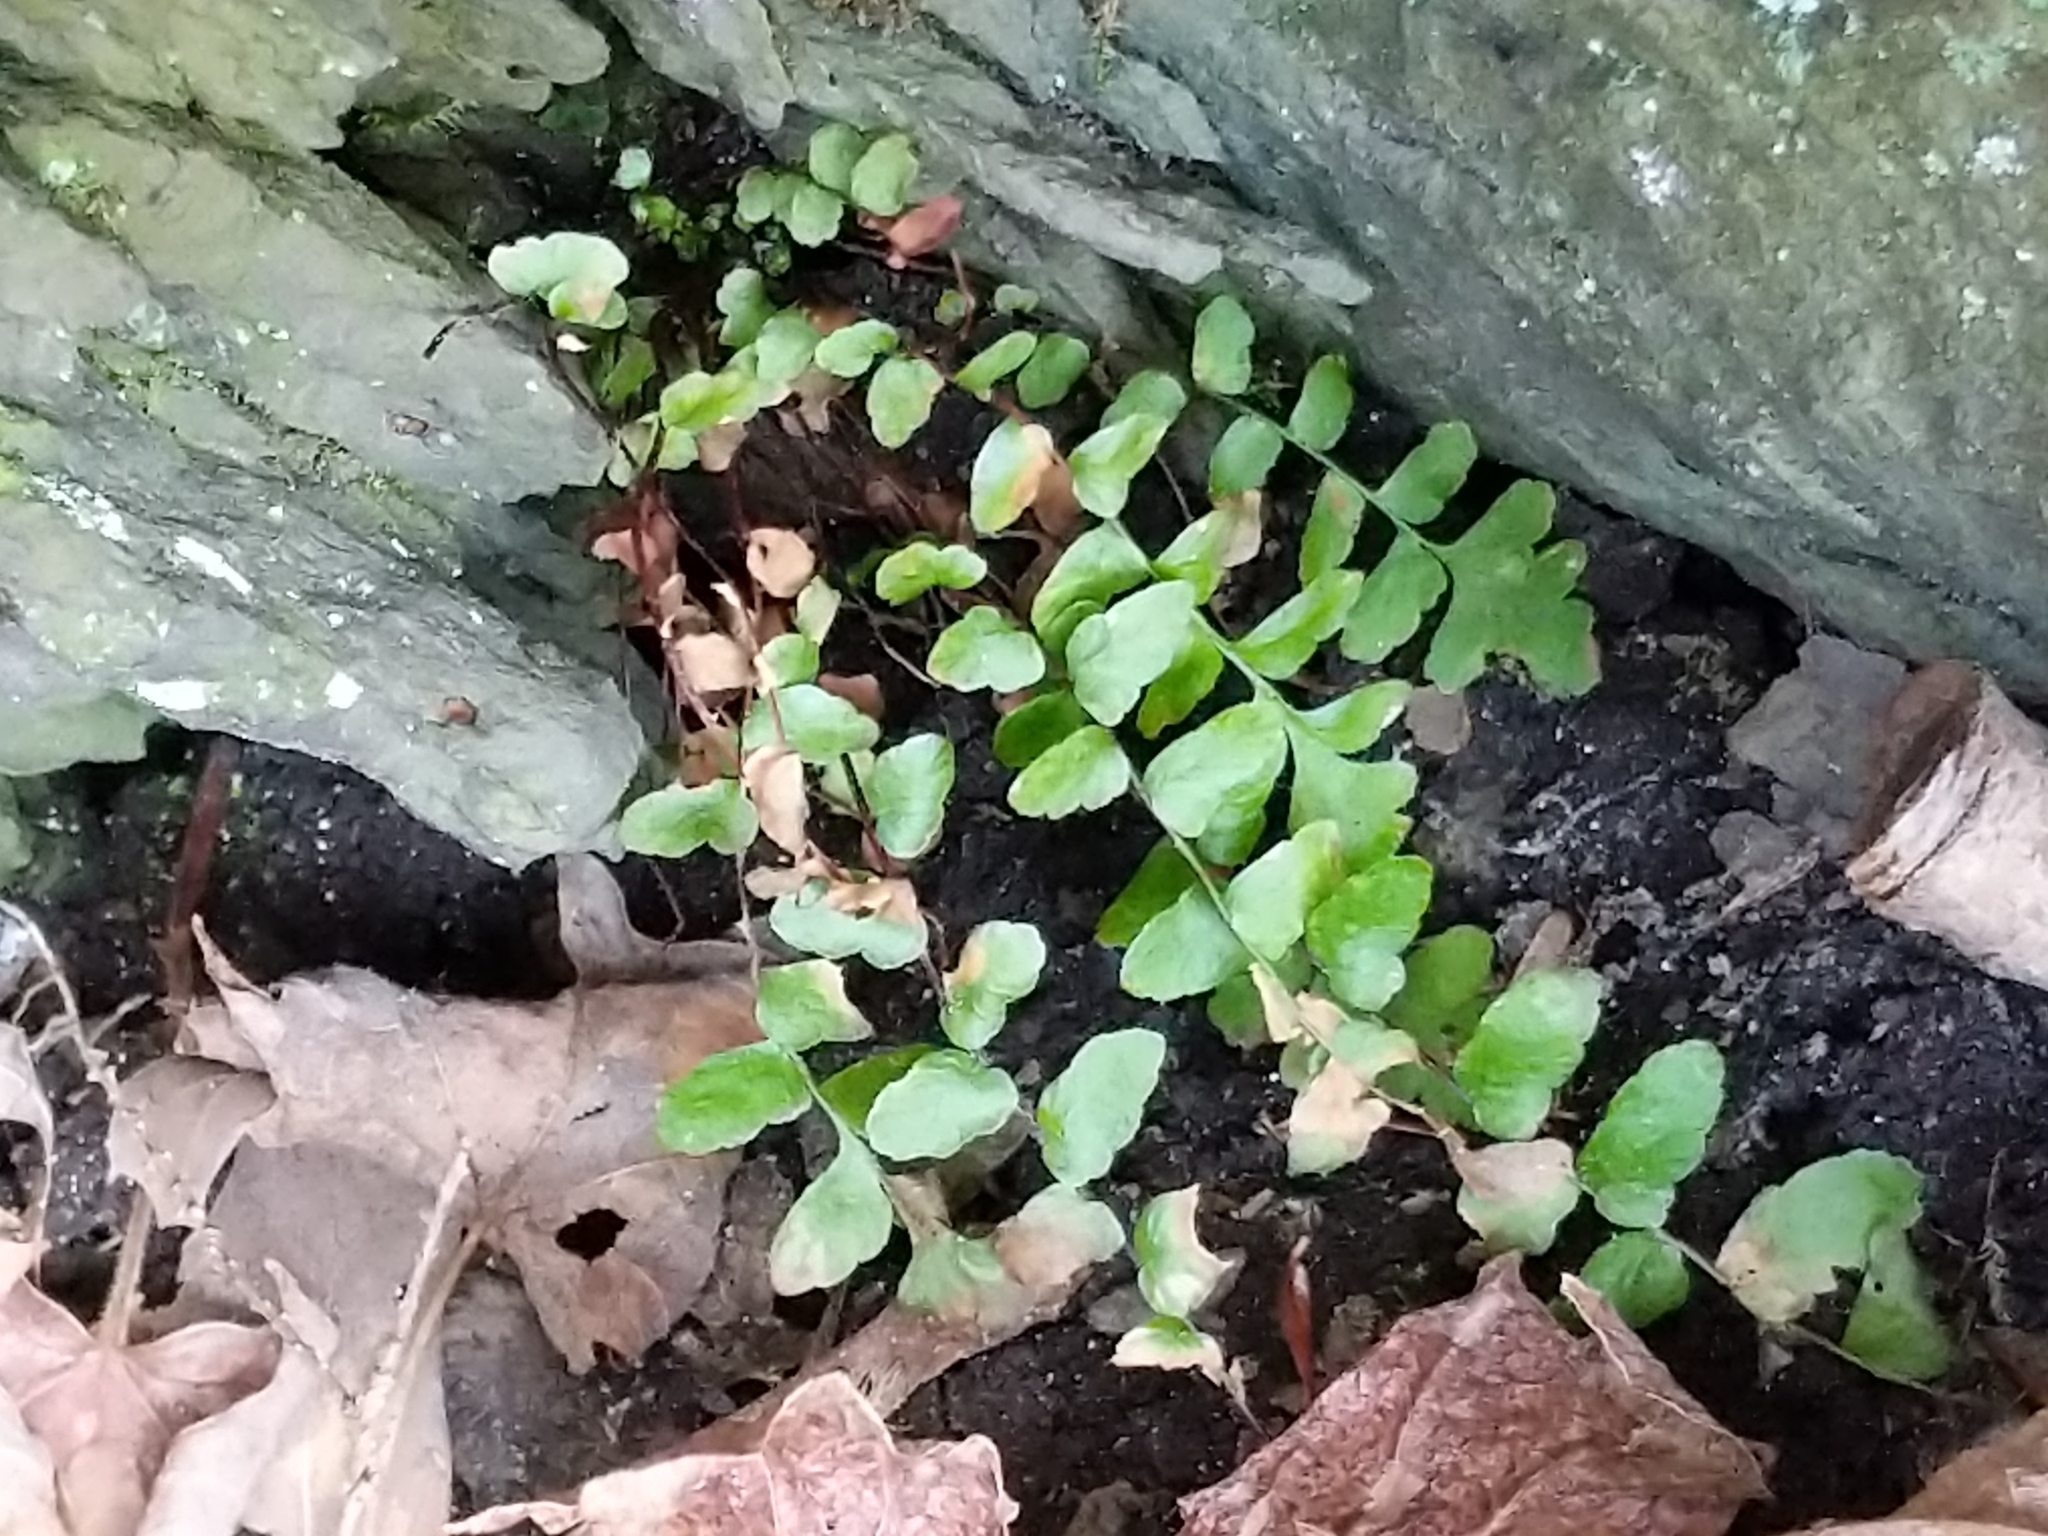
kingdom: Plantae
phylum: Tracheophyta
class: Polypodiopsida
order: Polypodiales
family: Aspleniaceae
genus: Asplenium
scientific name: Asplenium platyneuron
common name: Ebony spleenwort
